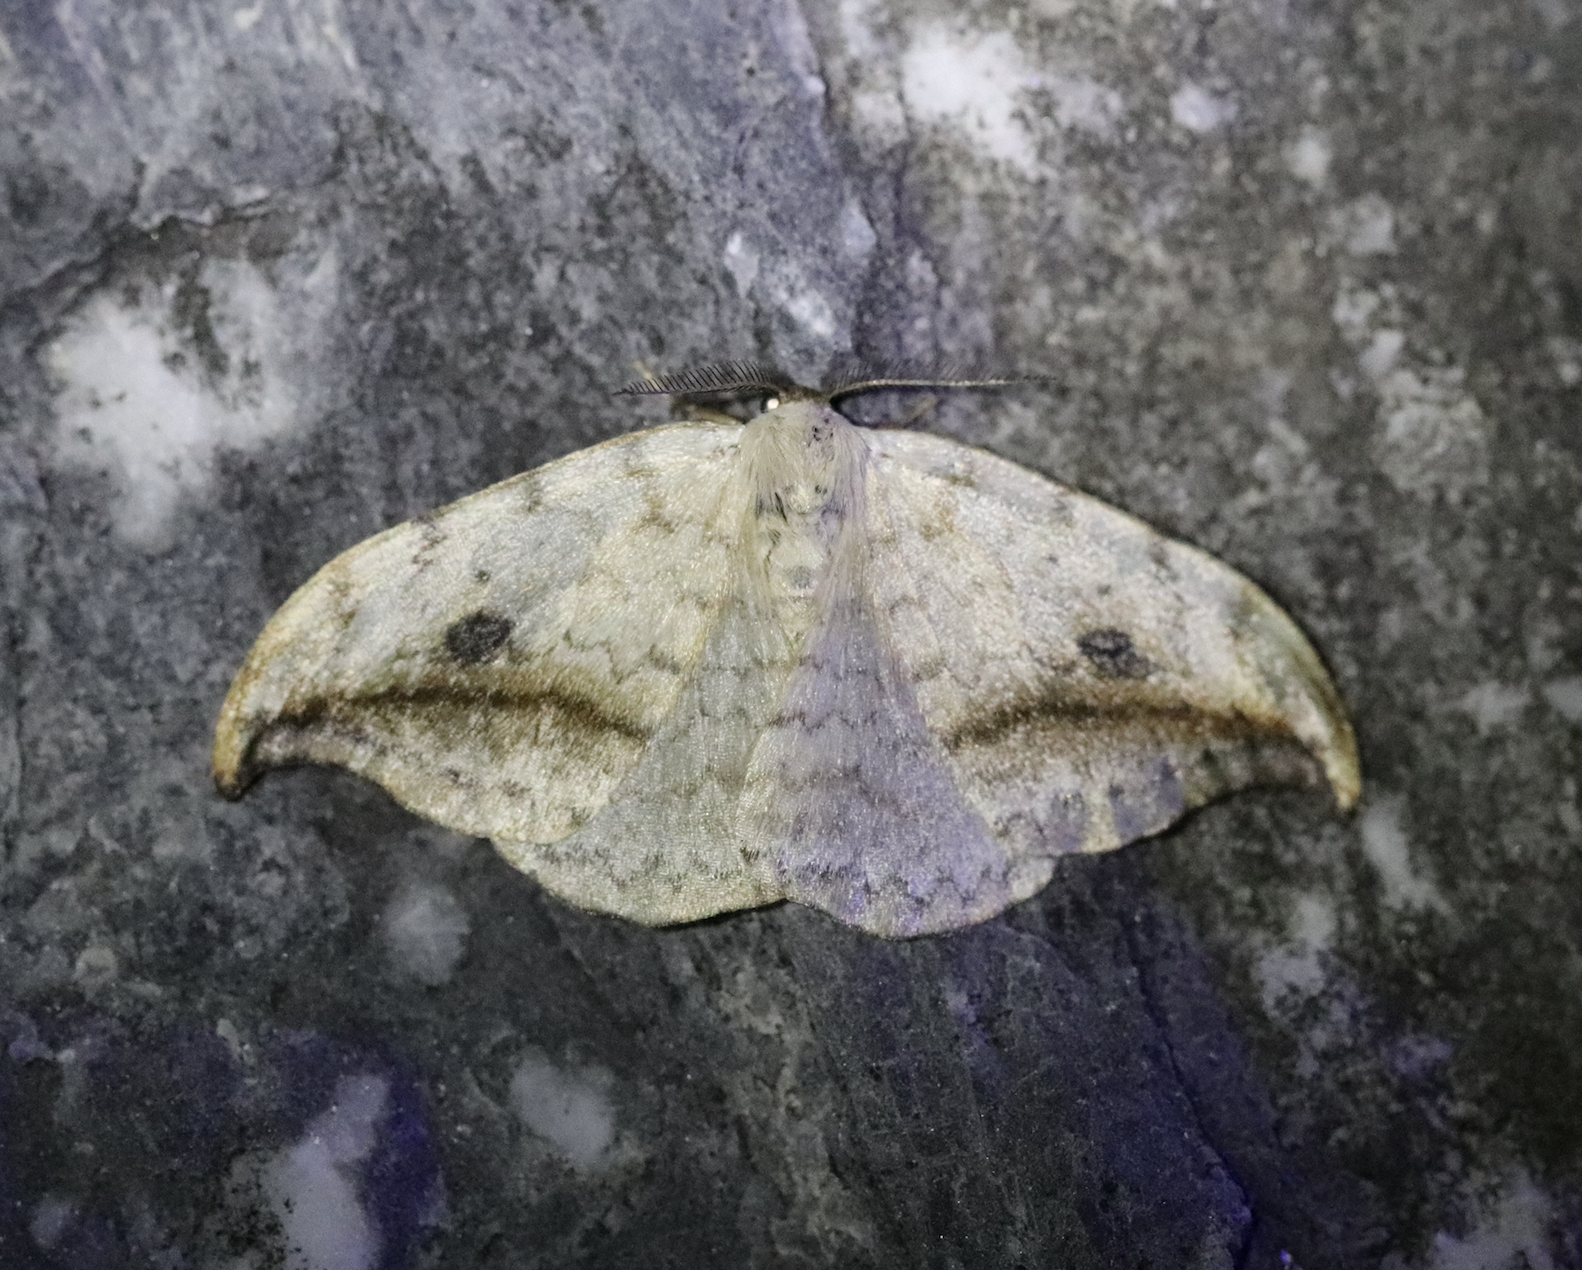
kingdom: Animalia
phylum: Arthropoda
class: Insecta
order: Lepidoptera
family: Drepanidae
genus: Drepana
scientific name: Drepana falcataria
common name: Pebble hook-tip
